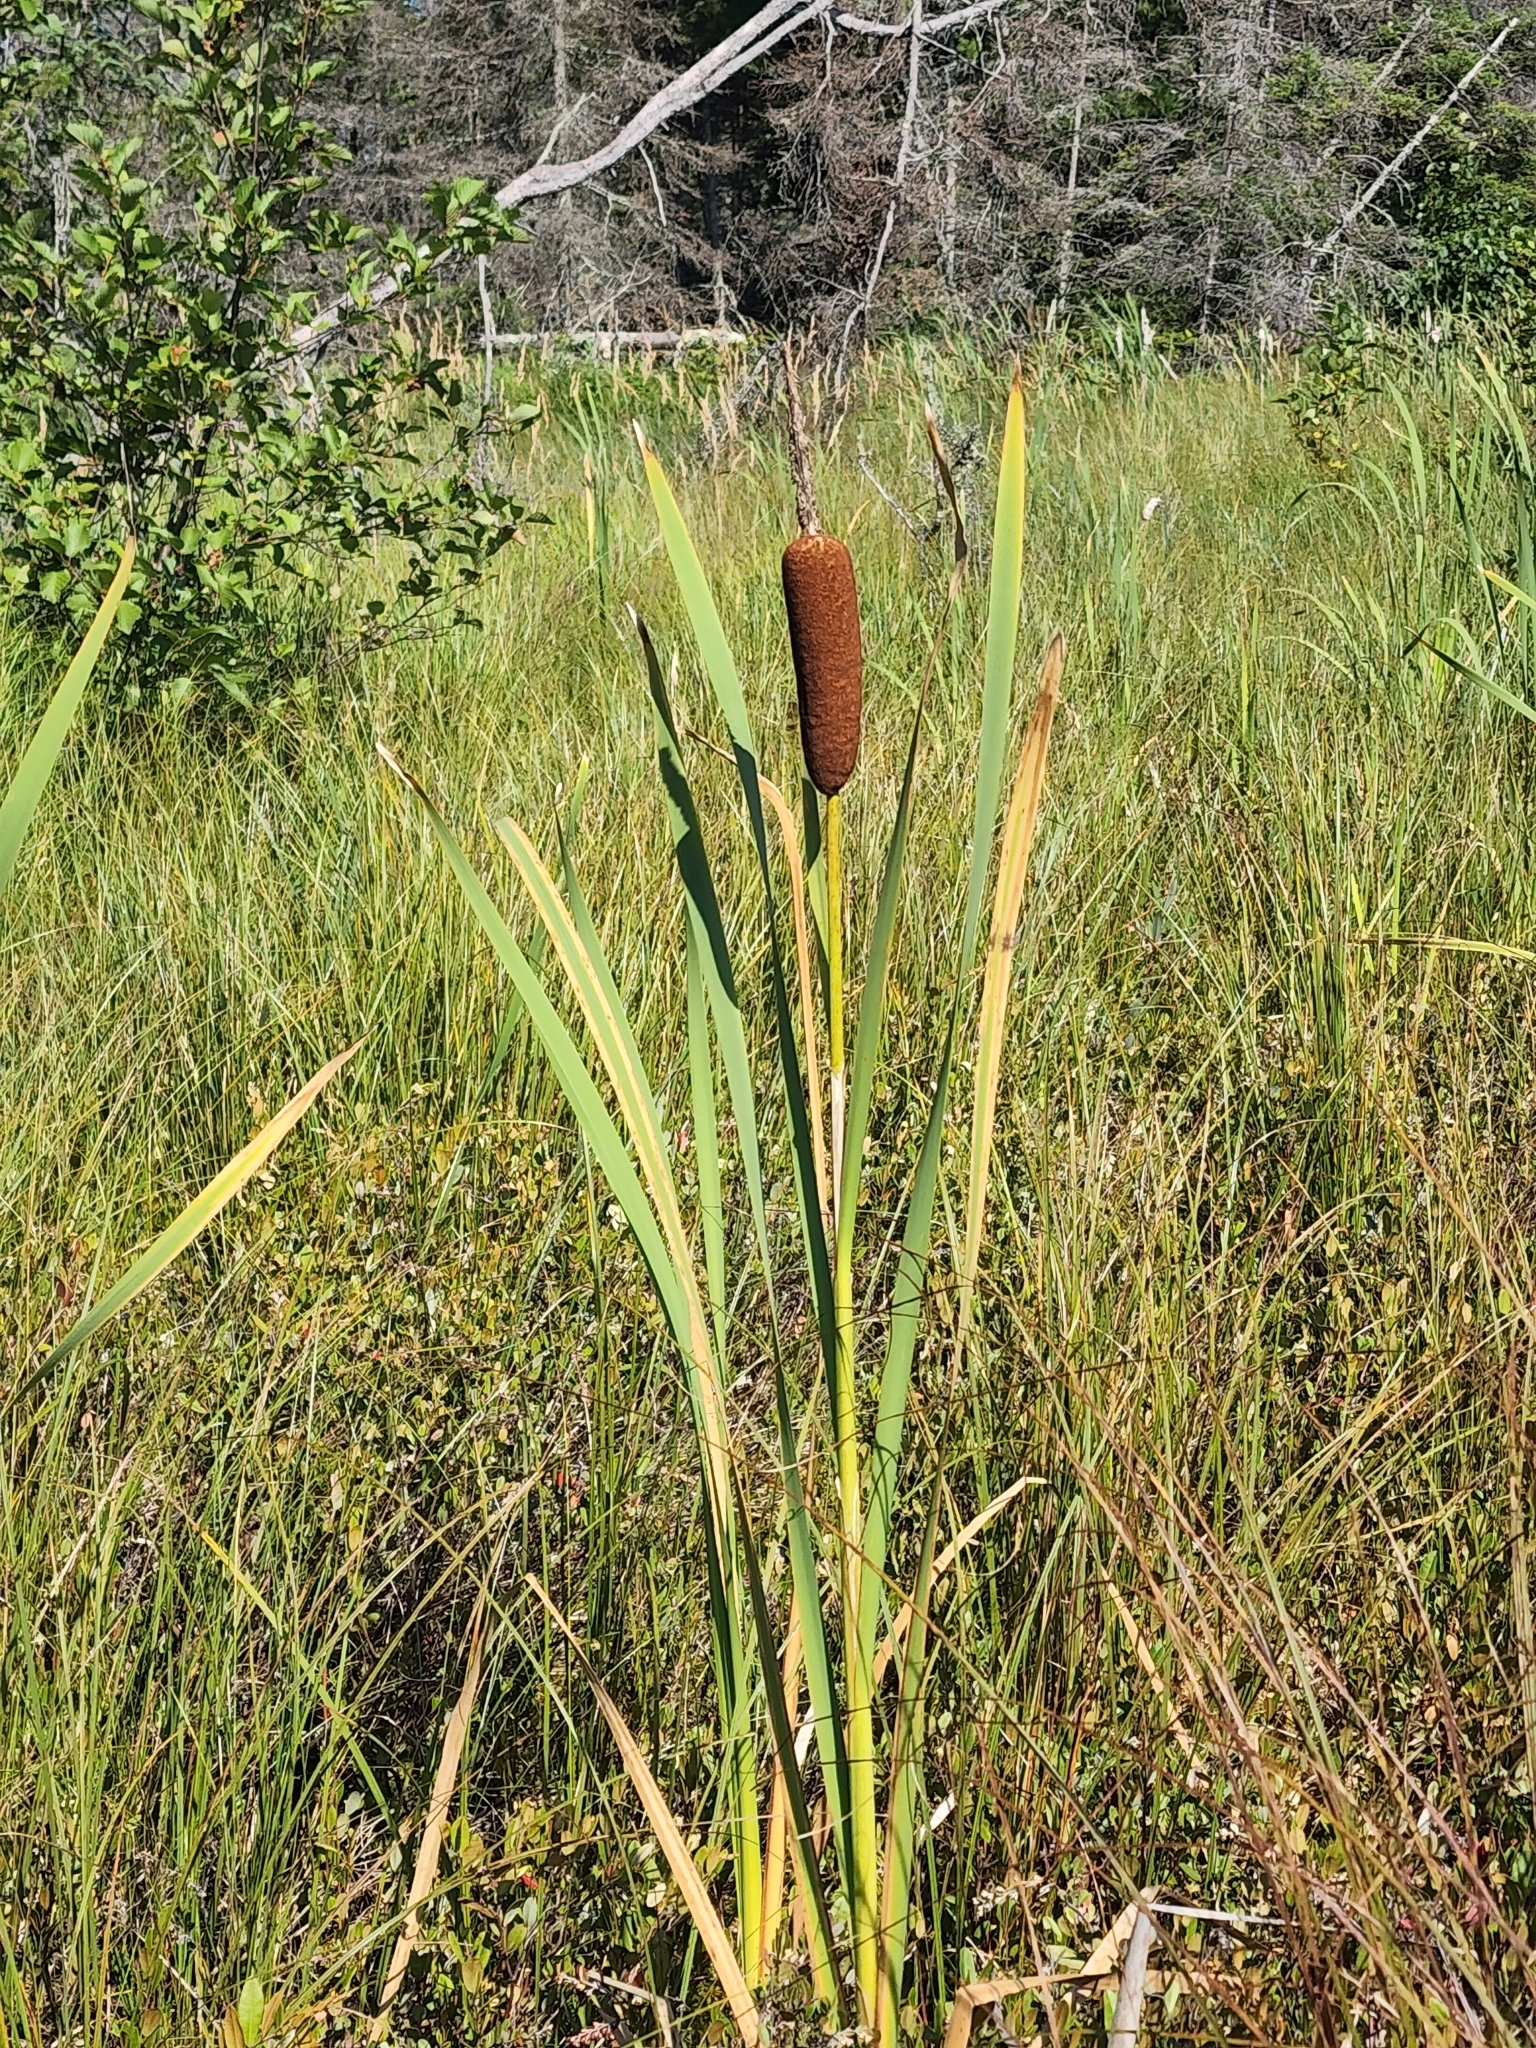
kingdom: Plantae
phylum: Tracheophyta
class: Liliopsida
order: Poales
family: Typhaceae
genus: Typha
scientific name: Typha latifolia
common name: Broadleaf cattail
